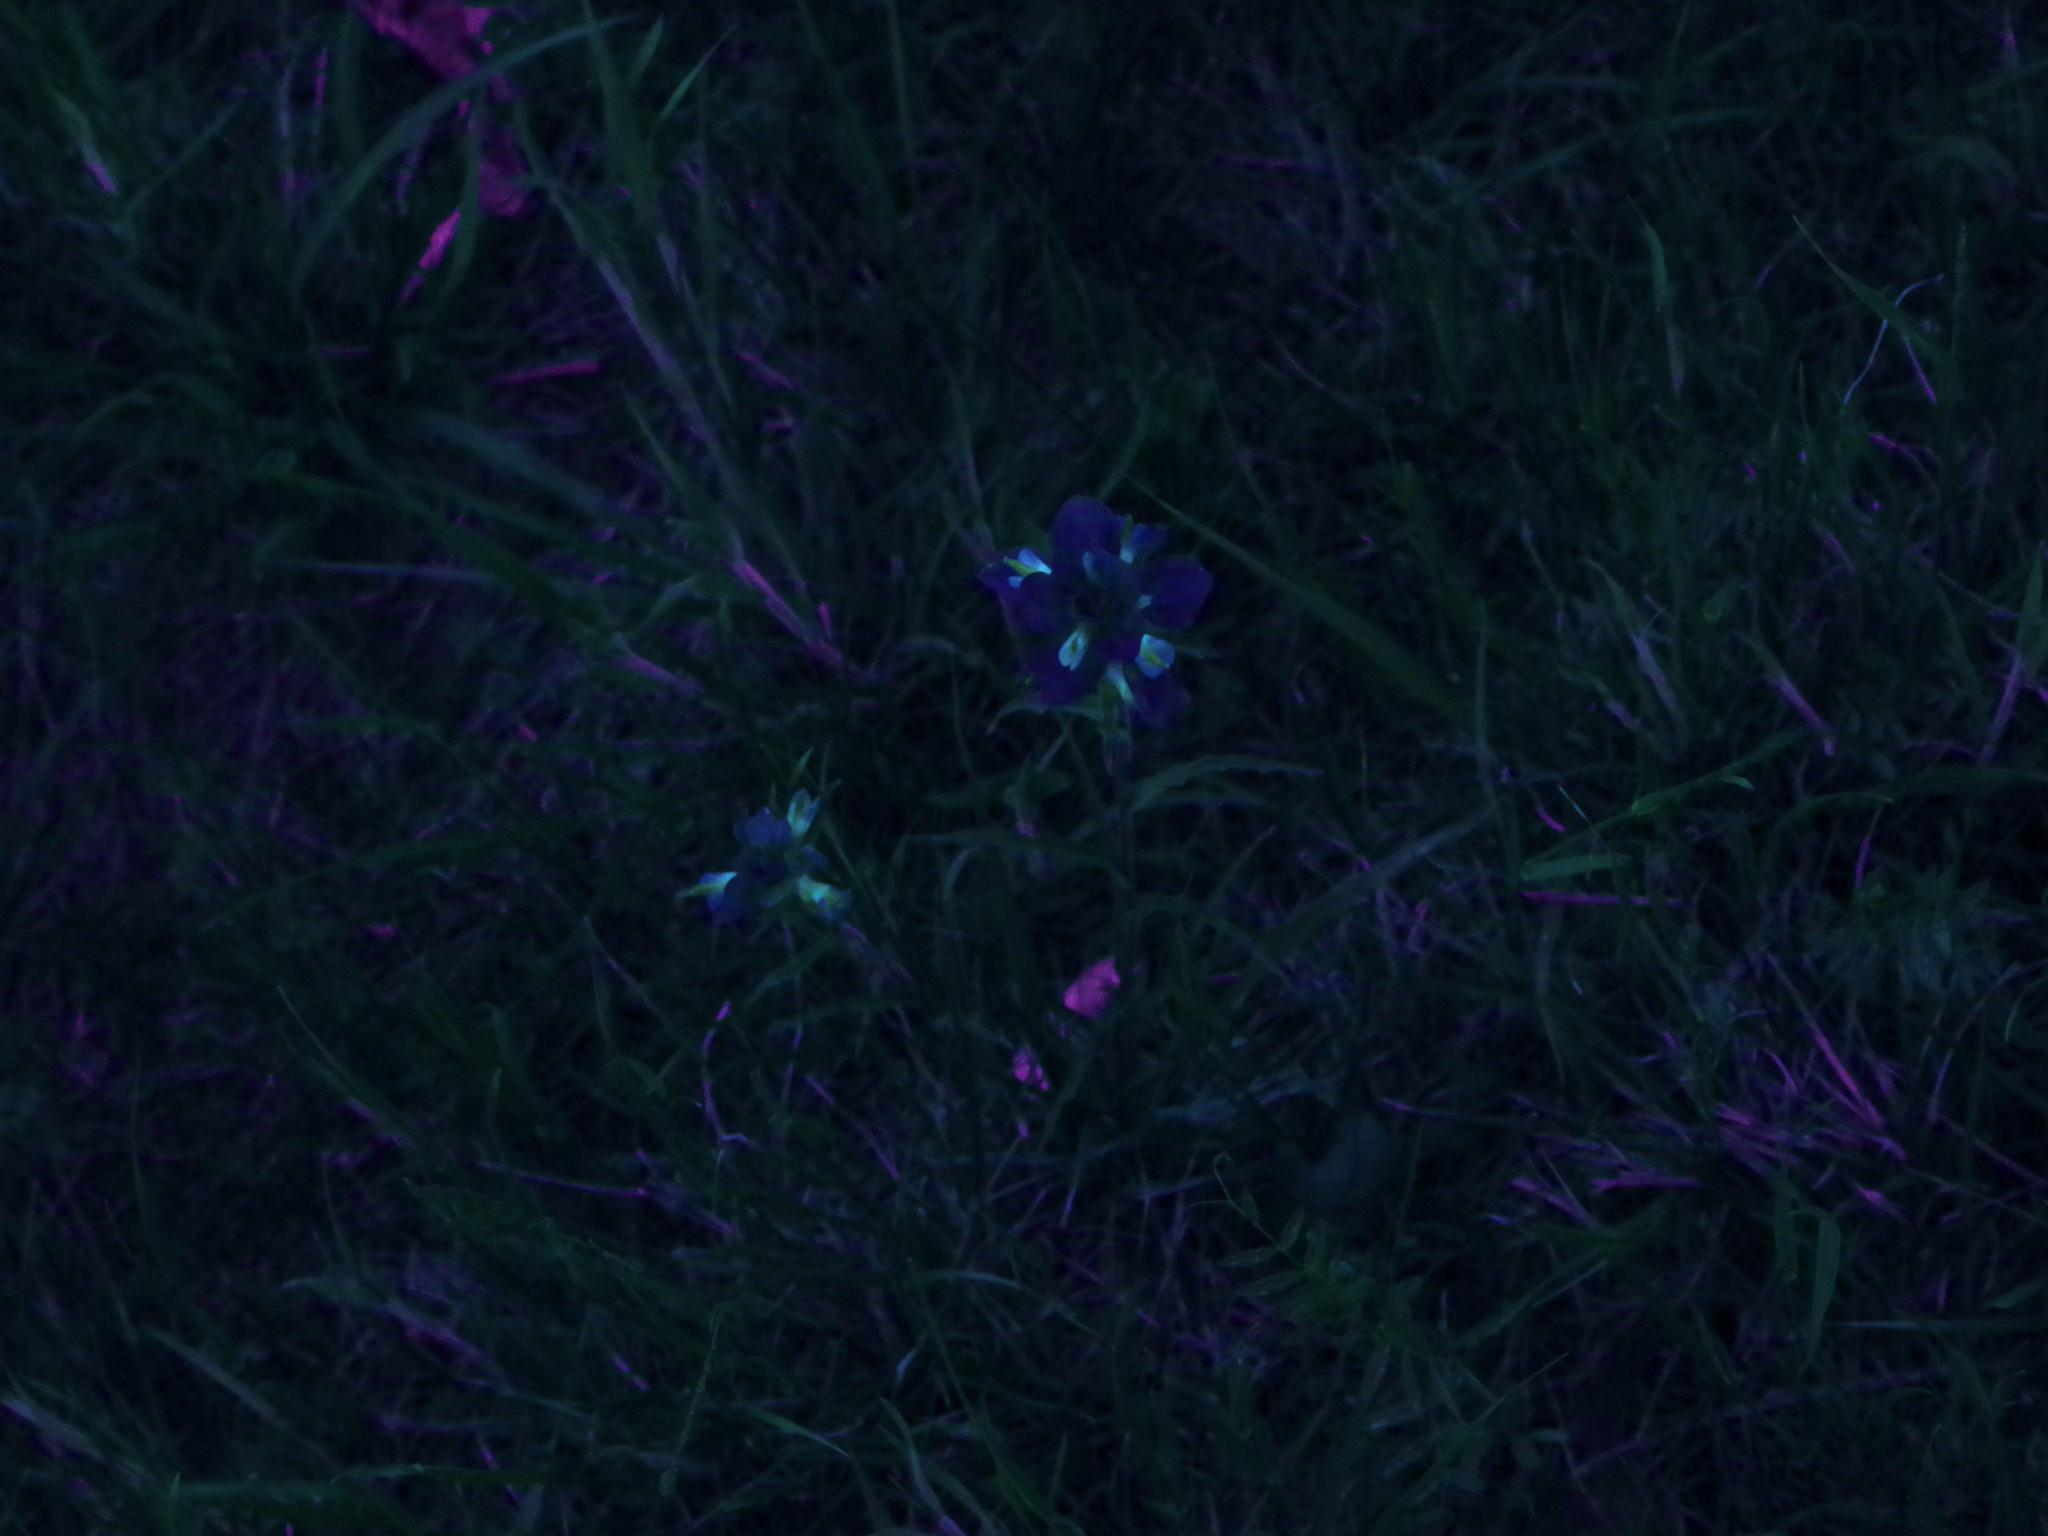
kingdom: Plantae
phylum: Tracheophyta
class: Magnoliopsida
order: Lamiales
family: Orobanchaceae
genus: Castilleja
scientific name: Castilleja indivisa
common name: Texas paintbrush
